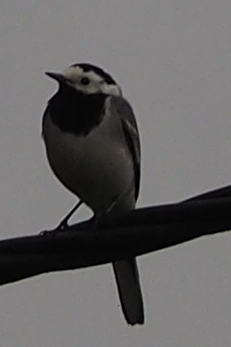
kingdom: Animalia
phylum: Chordata
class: Aves
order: Passeriformes
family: Motacillidae
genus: Motacilla
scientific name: Motacilla alba
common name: White wagtail
